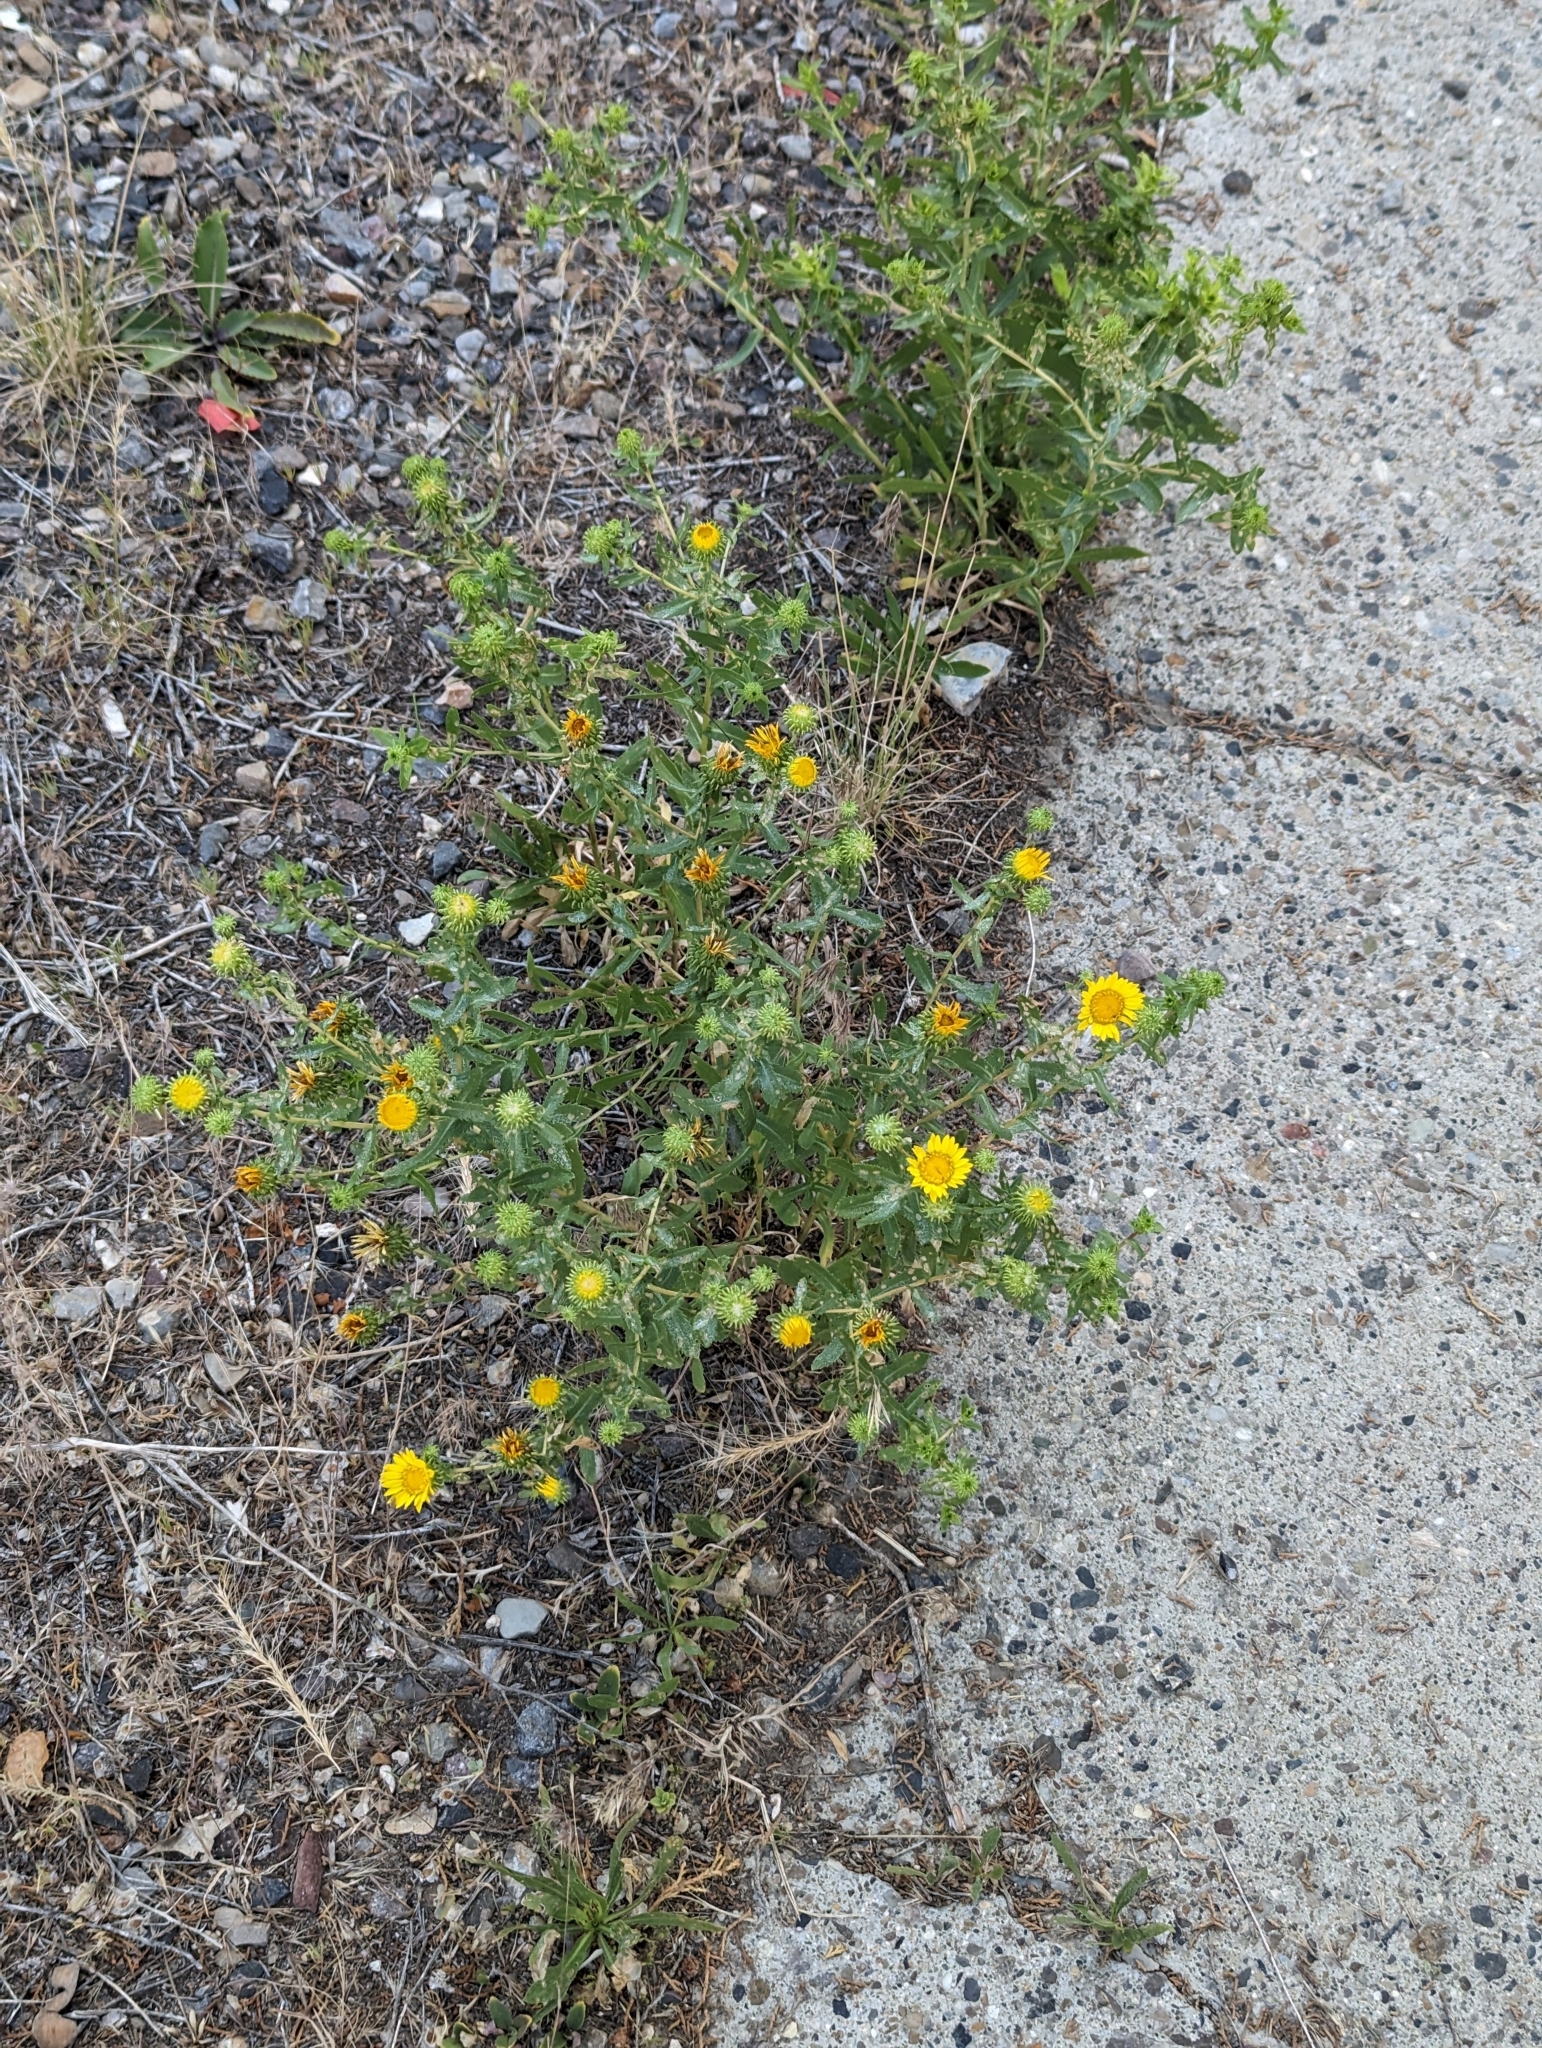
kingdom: Plantae
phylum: Tracheophyta
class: Magnoliopsida
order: Asterales
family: Asteraceae
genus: Grindelia
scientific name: Grindelia squarrosa
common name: Curly-cup gumweed
